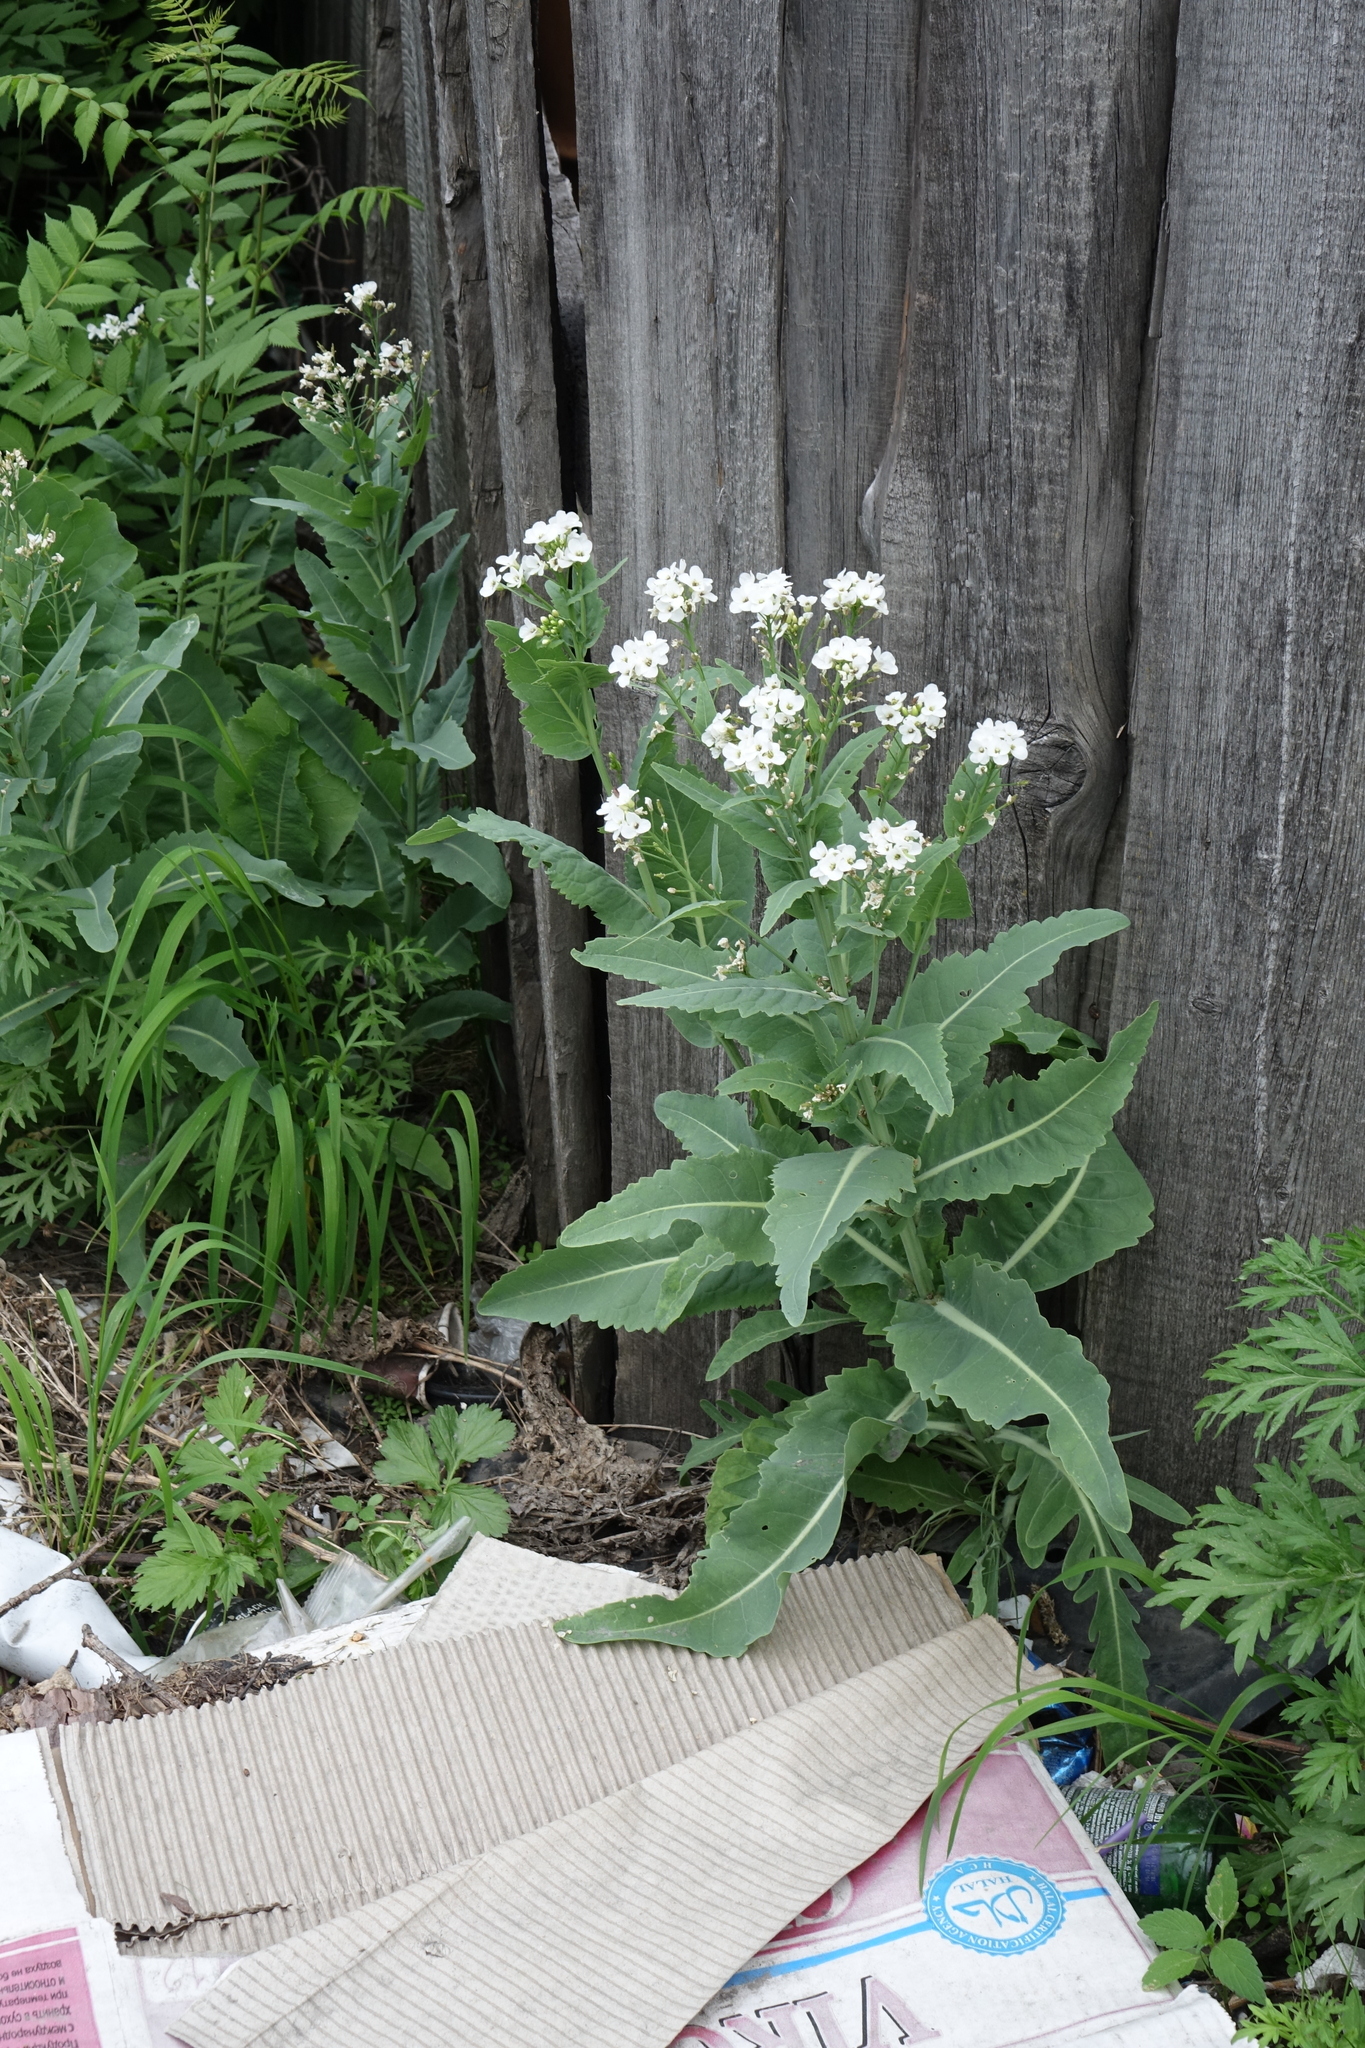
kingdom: Plantae
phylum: Tracheophyta
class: Magnoliopsida
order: Brassicales
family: Brassicaceae
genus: Armoracia
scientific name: Armoracia sisymbrioides
